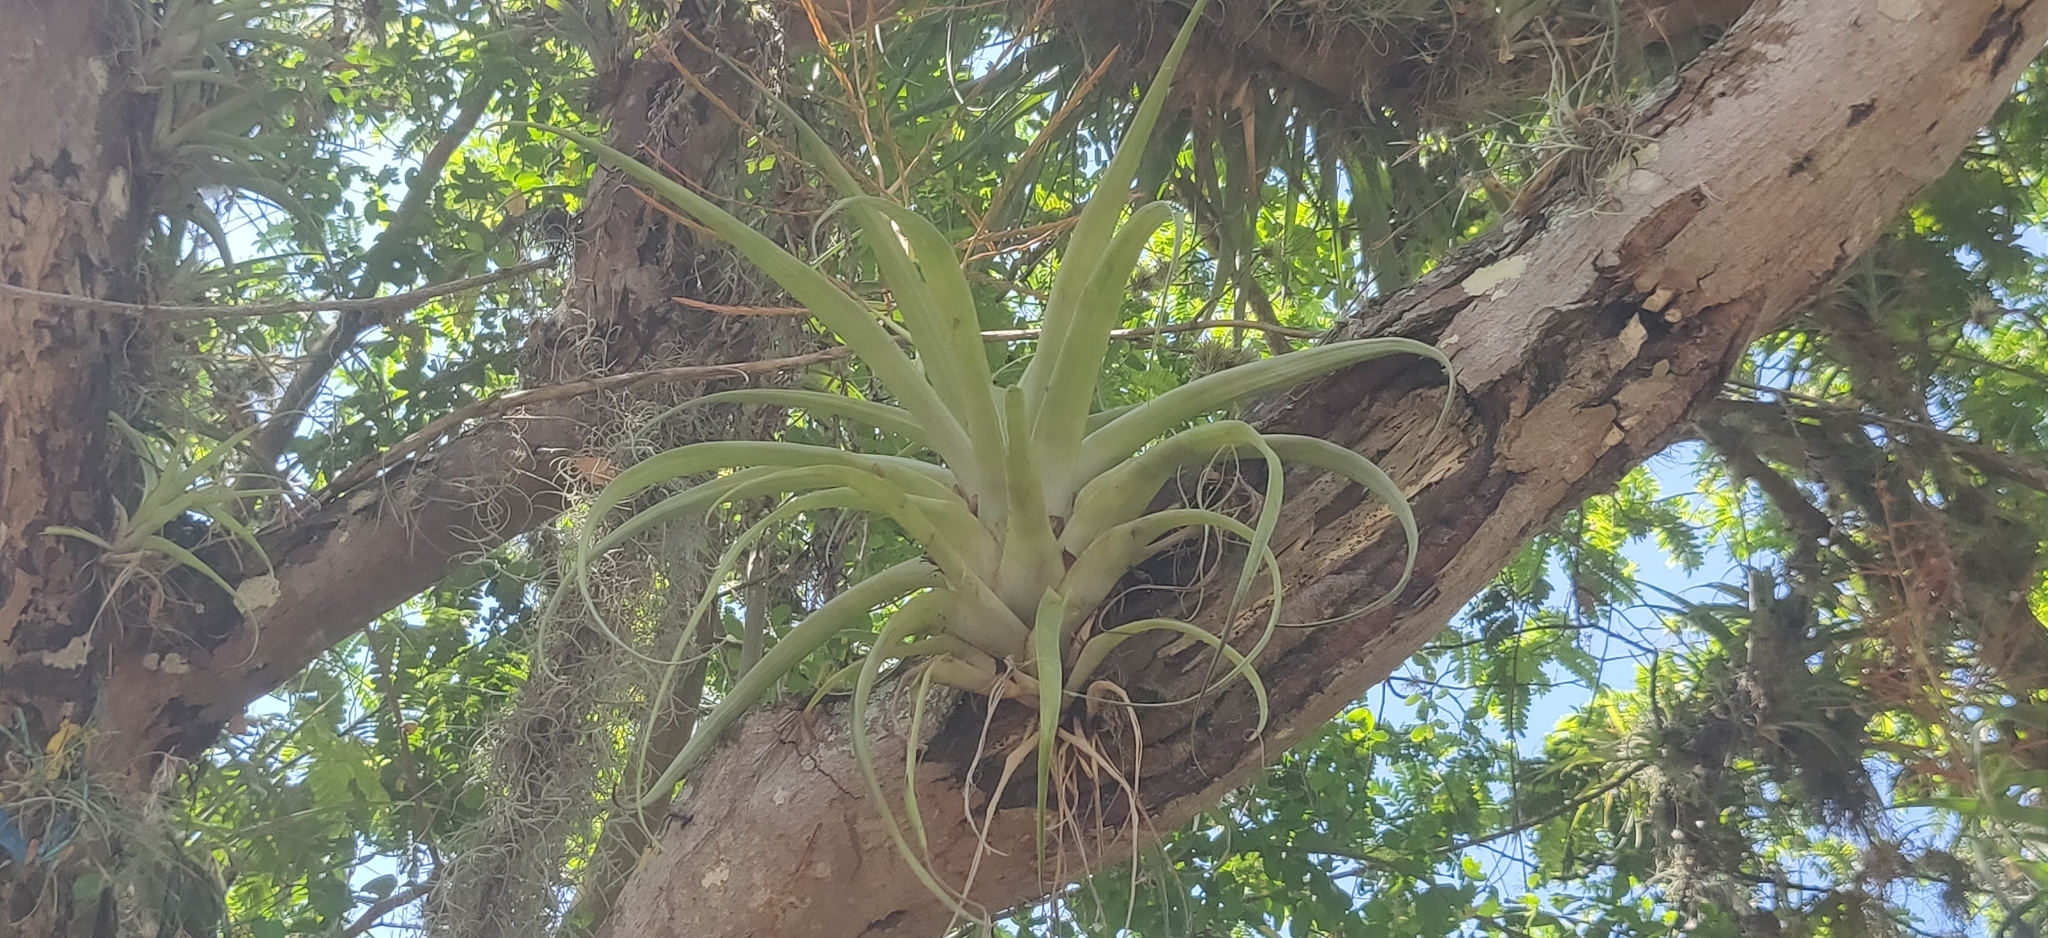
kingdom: Plantae
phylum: Tracheophyta
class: Liliopsida
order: Poales
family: Bromeliaceae
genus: Tillandsia
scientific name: Tillandsia elongata
